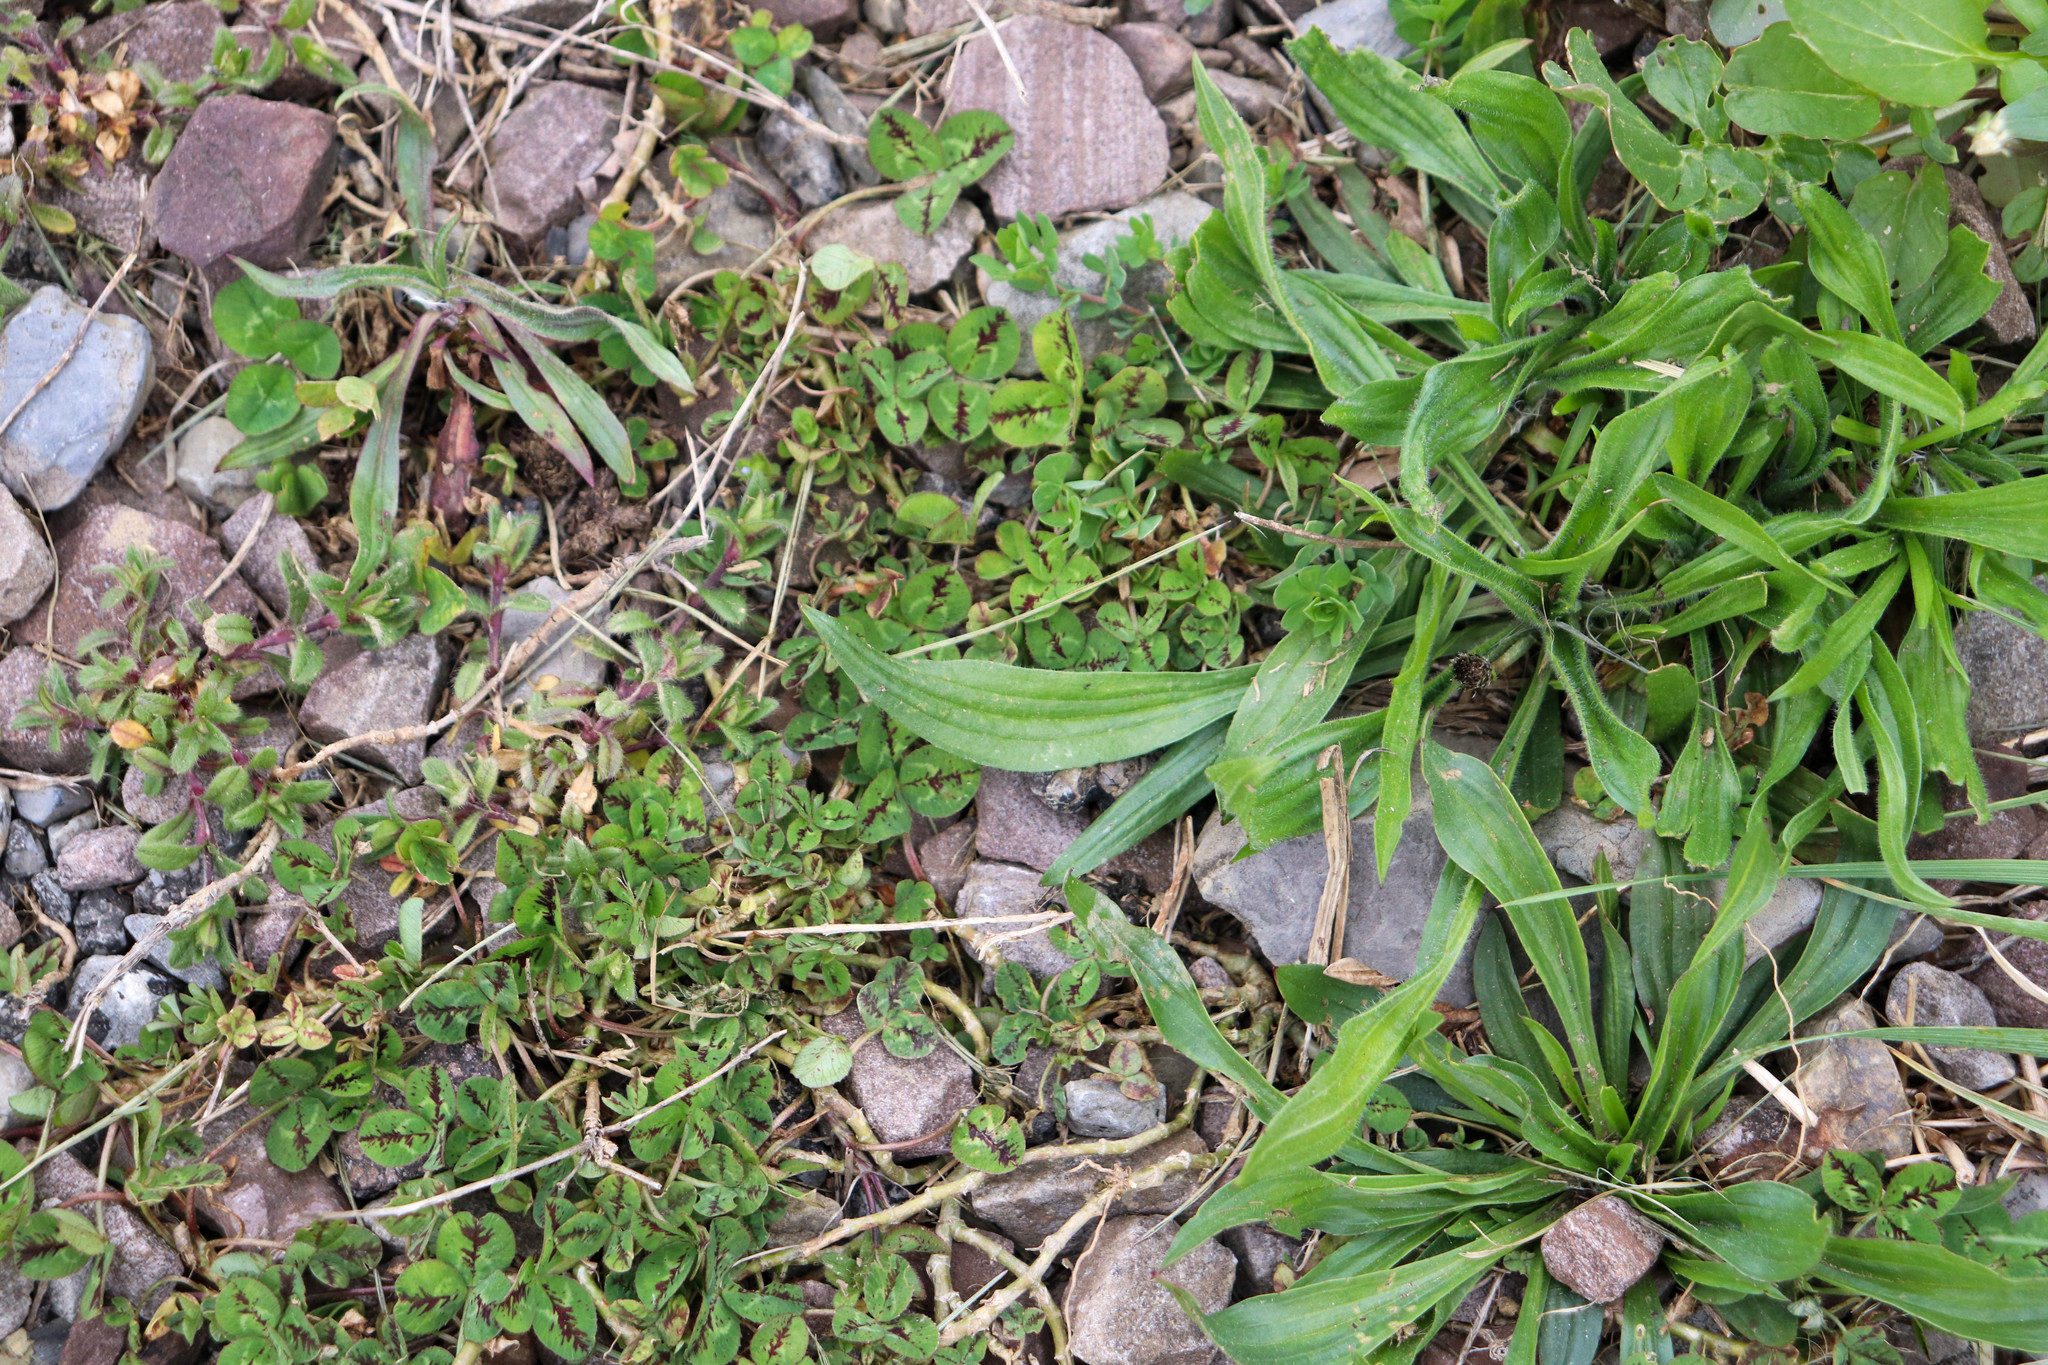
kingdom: Plantae
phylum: Tracheophyta
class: Magnoliopsida
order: Lamiales
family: Plantaginaceae
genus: Plantago
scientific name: Plantago lanceolata
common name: Ribwort plantain
